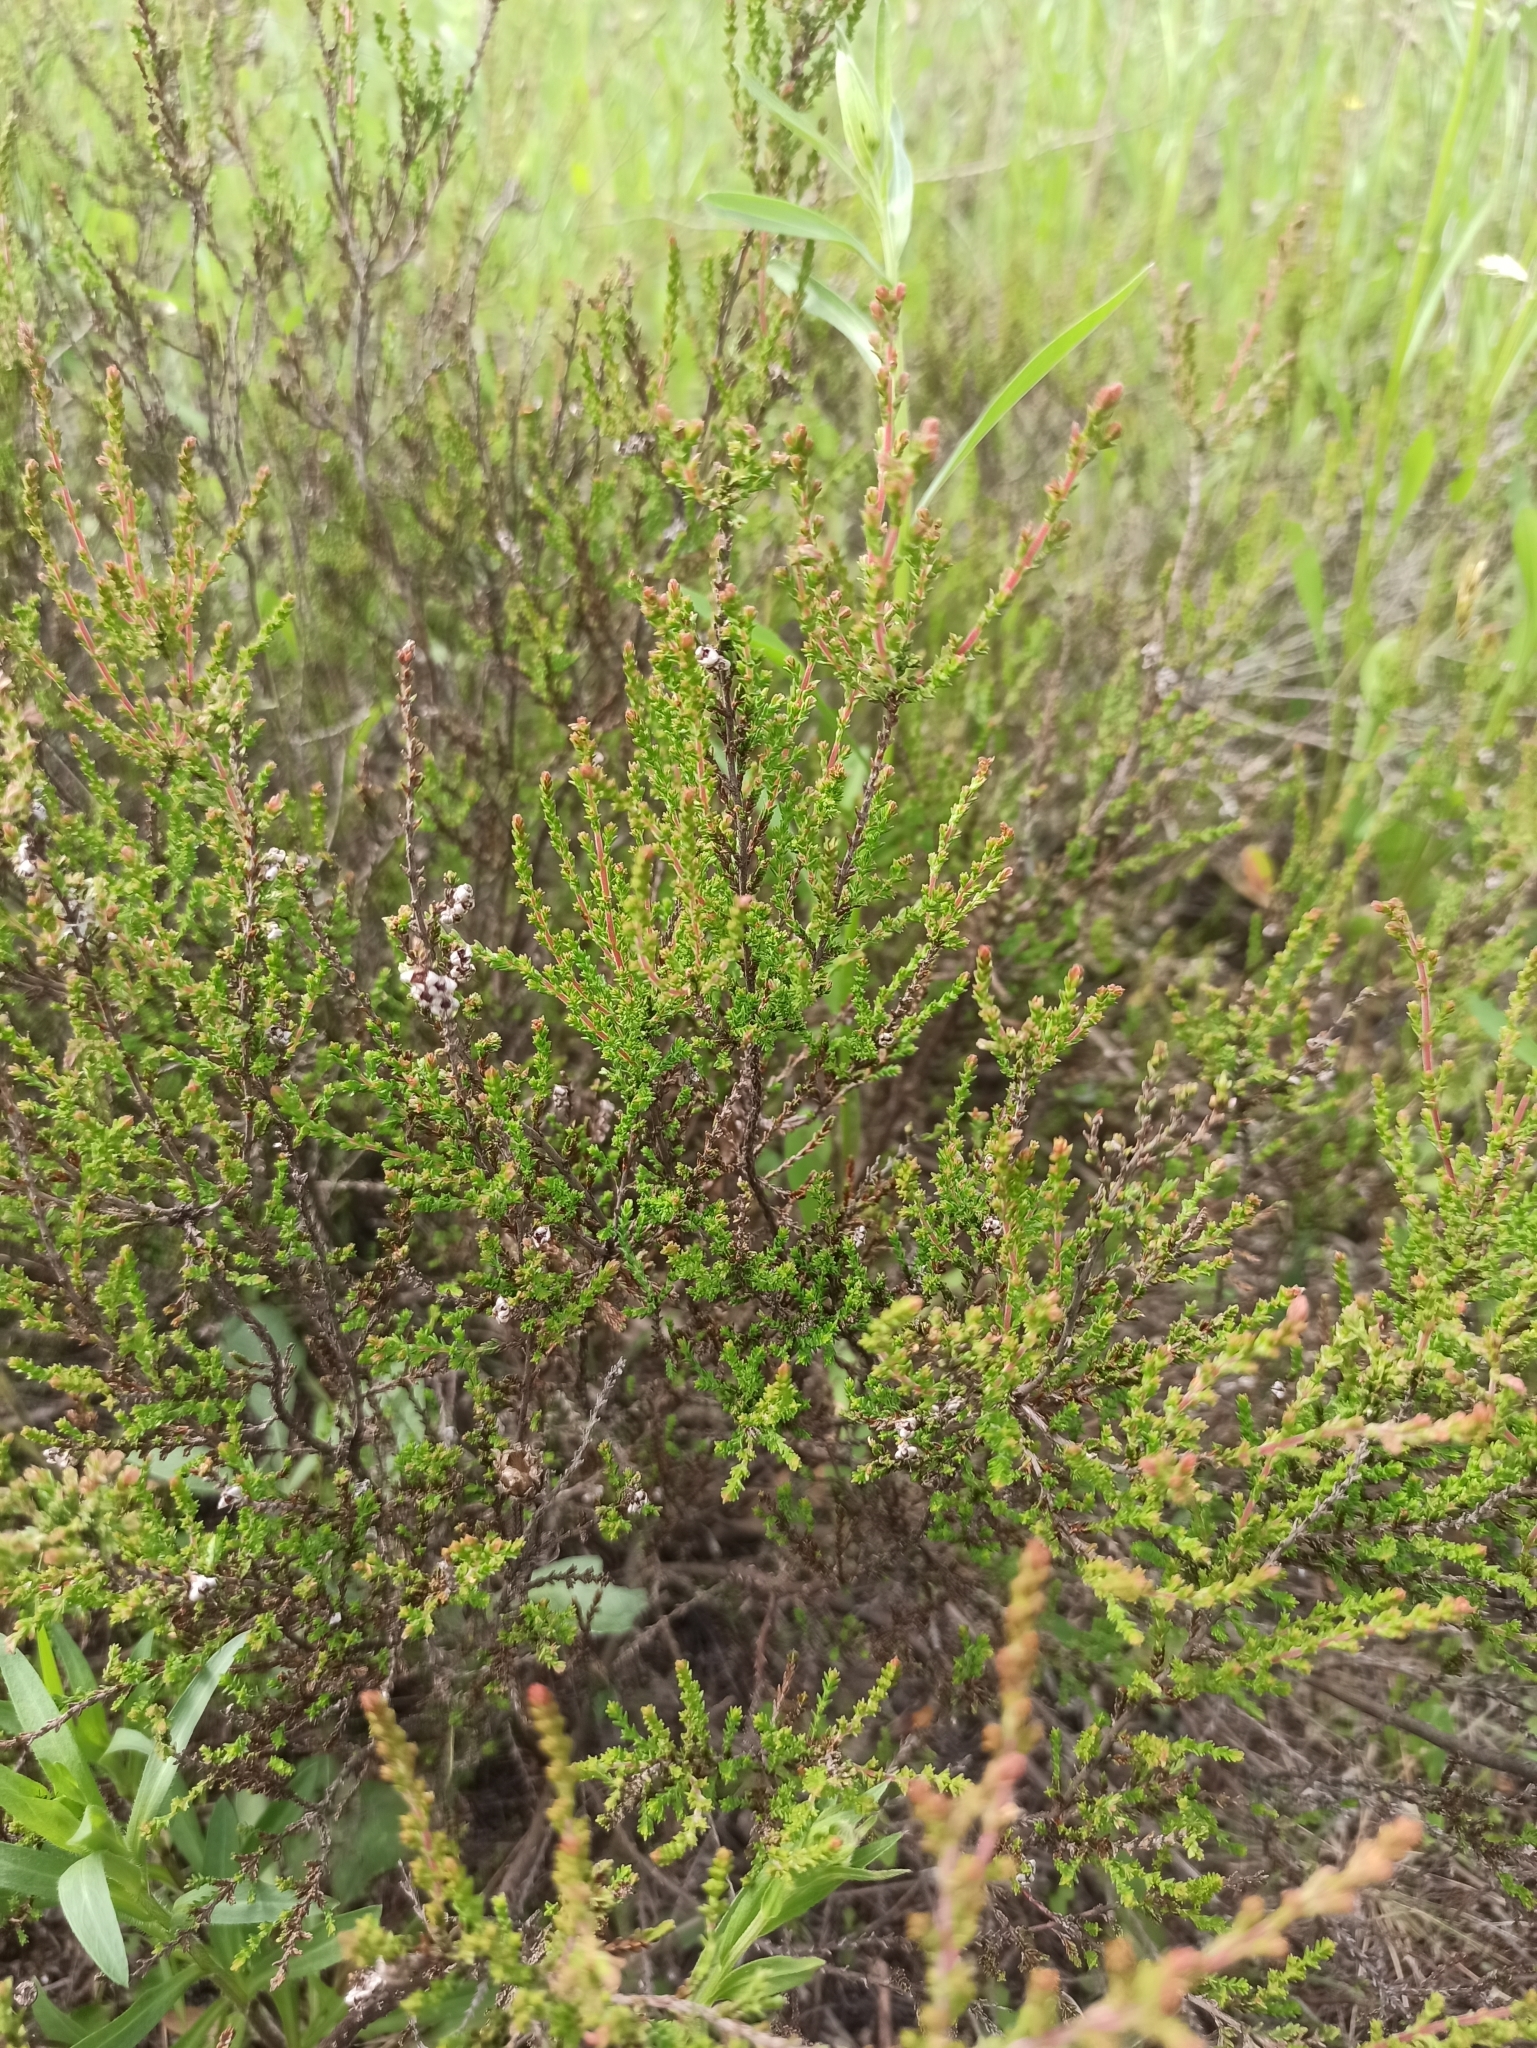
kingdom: Plantae
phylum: Tracheophyta
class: Magnoliopsida
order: Ericales
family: Ericaceae
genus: Calluna
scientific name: Calluna vulgaris
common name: Heather
